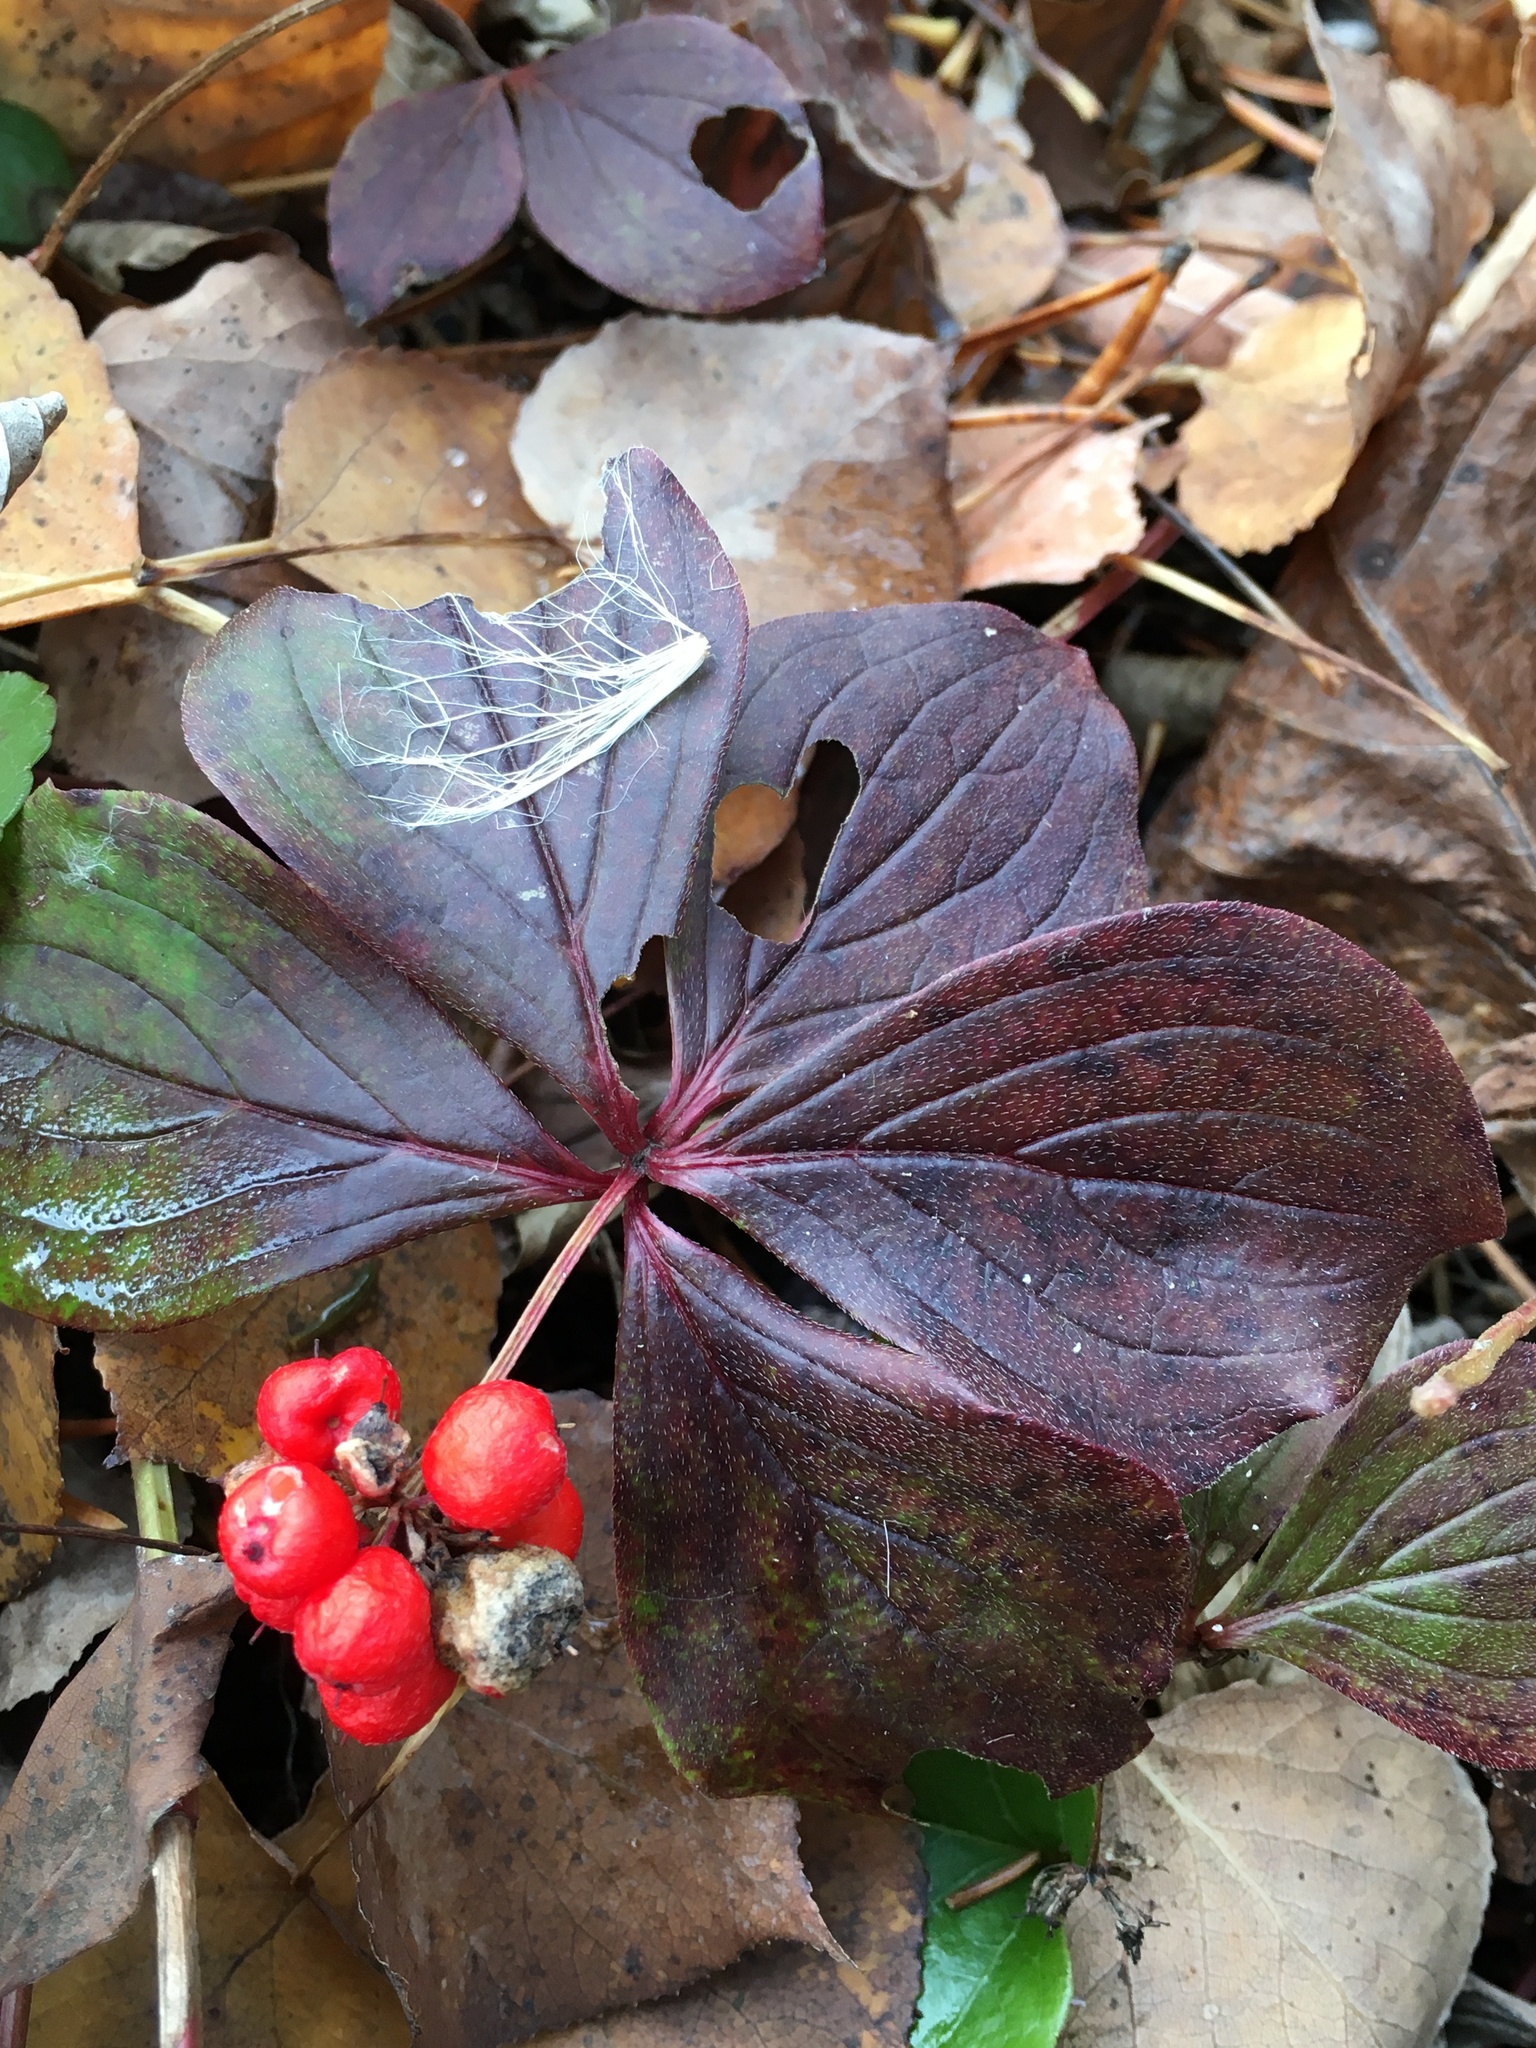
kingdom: Plantae
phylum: Tracheophyta
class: Magnoliopsida
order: Cornales
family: Cornaceae
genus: Cornus
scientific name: Cornus canadensis
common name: Creeping dogwood
